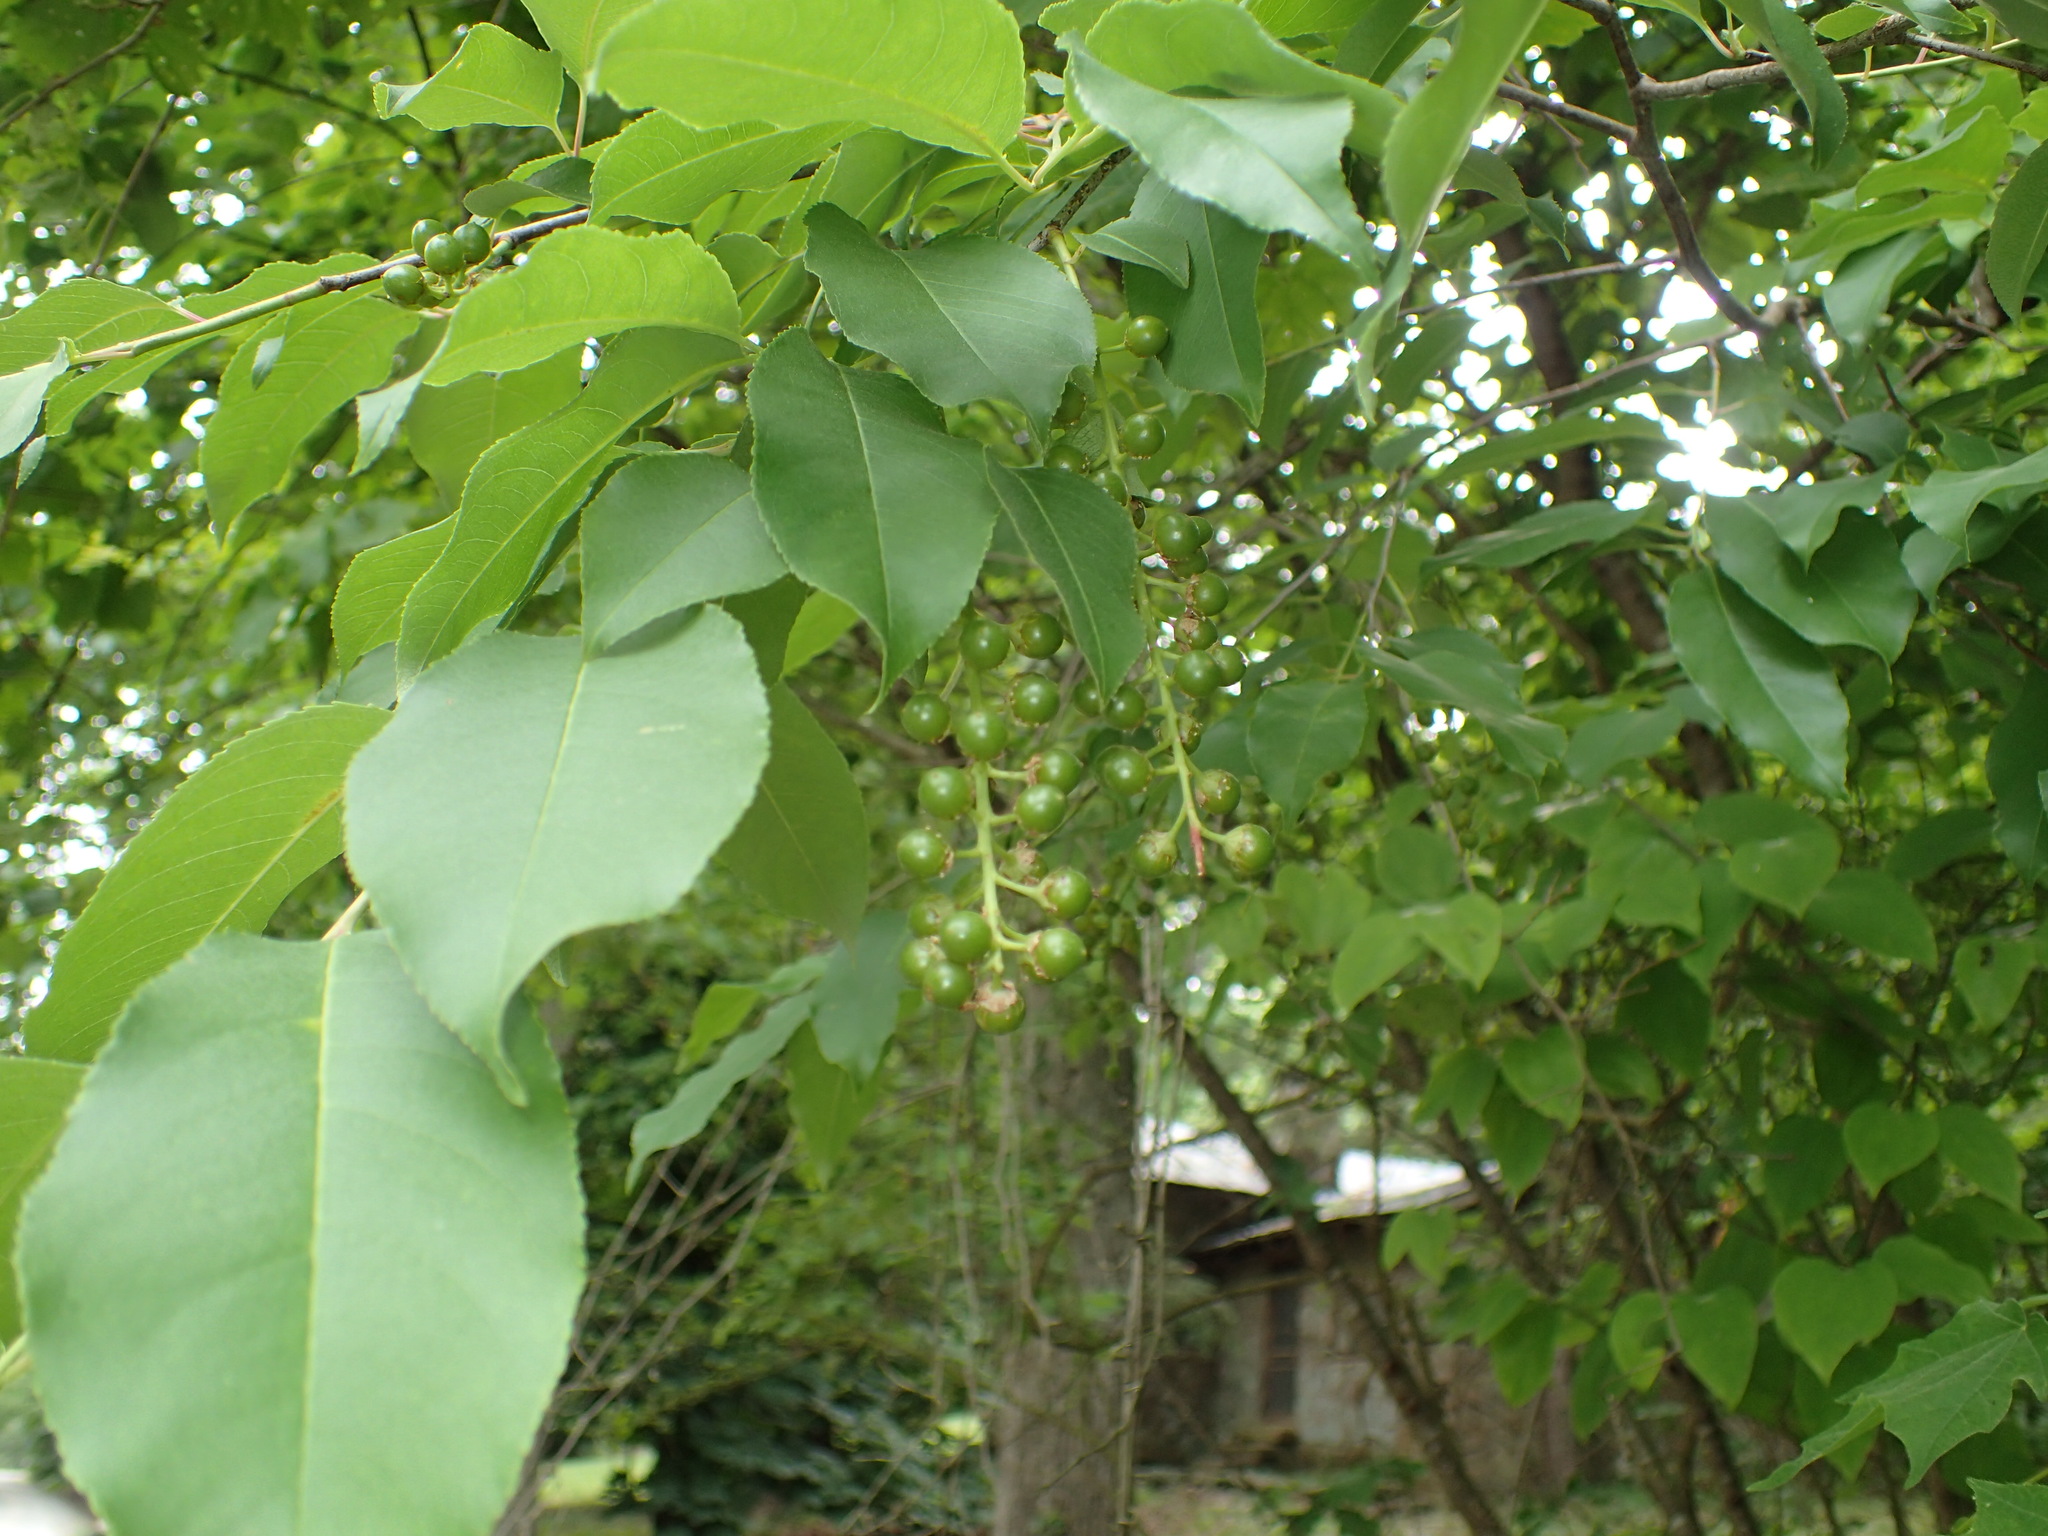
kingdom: Plantae
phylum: Tracheophyta
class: Magnoliopsida
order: Rosales
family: Rosaceae
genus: Prunus
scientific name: Prunus serotina
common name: Black cherry
